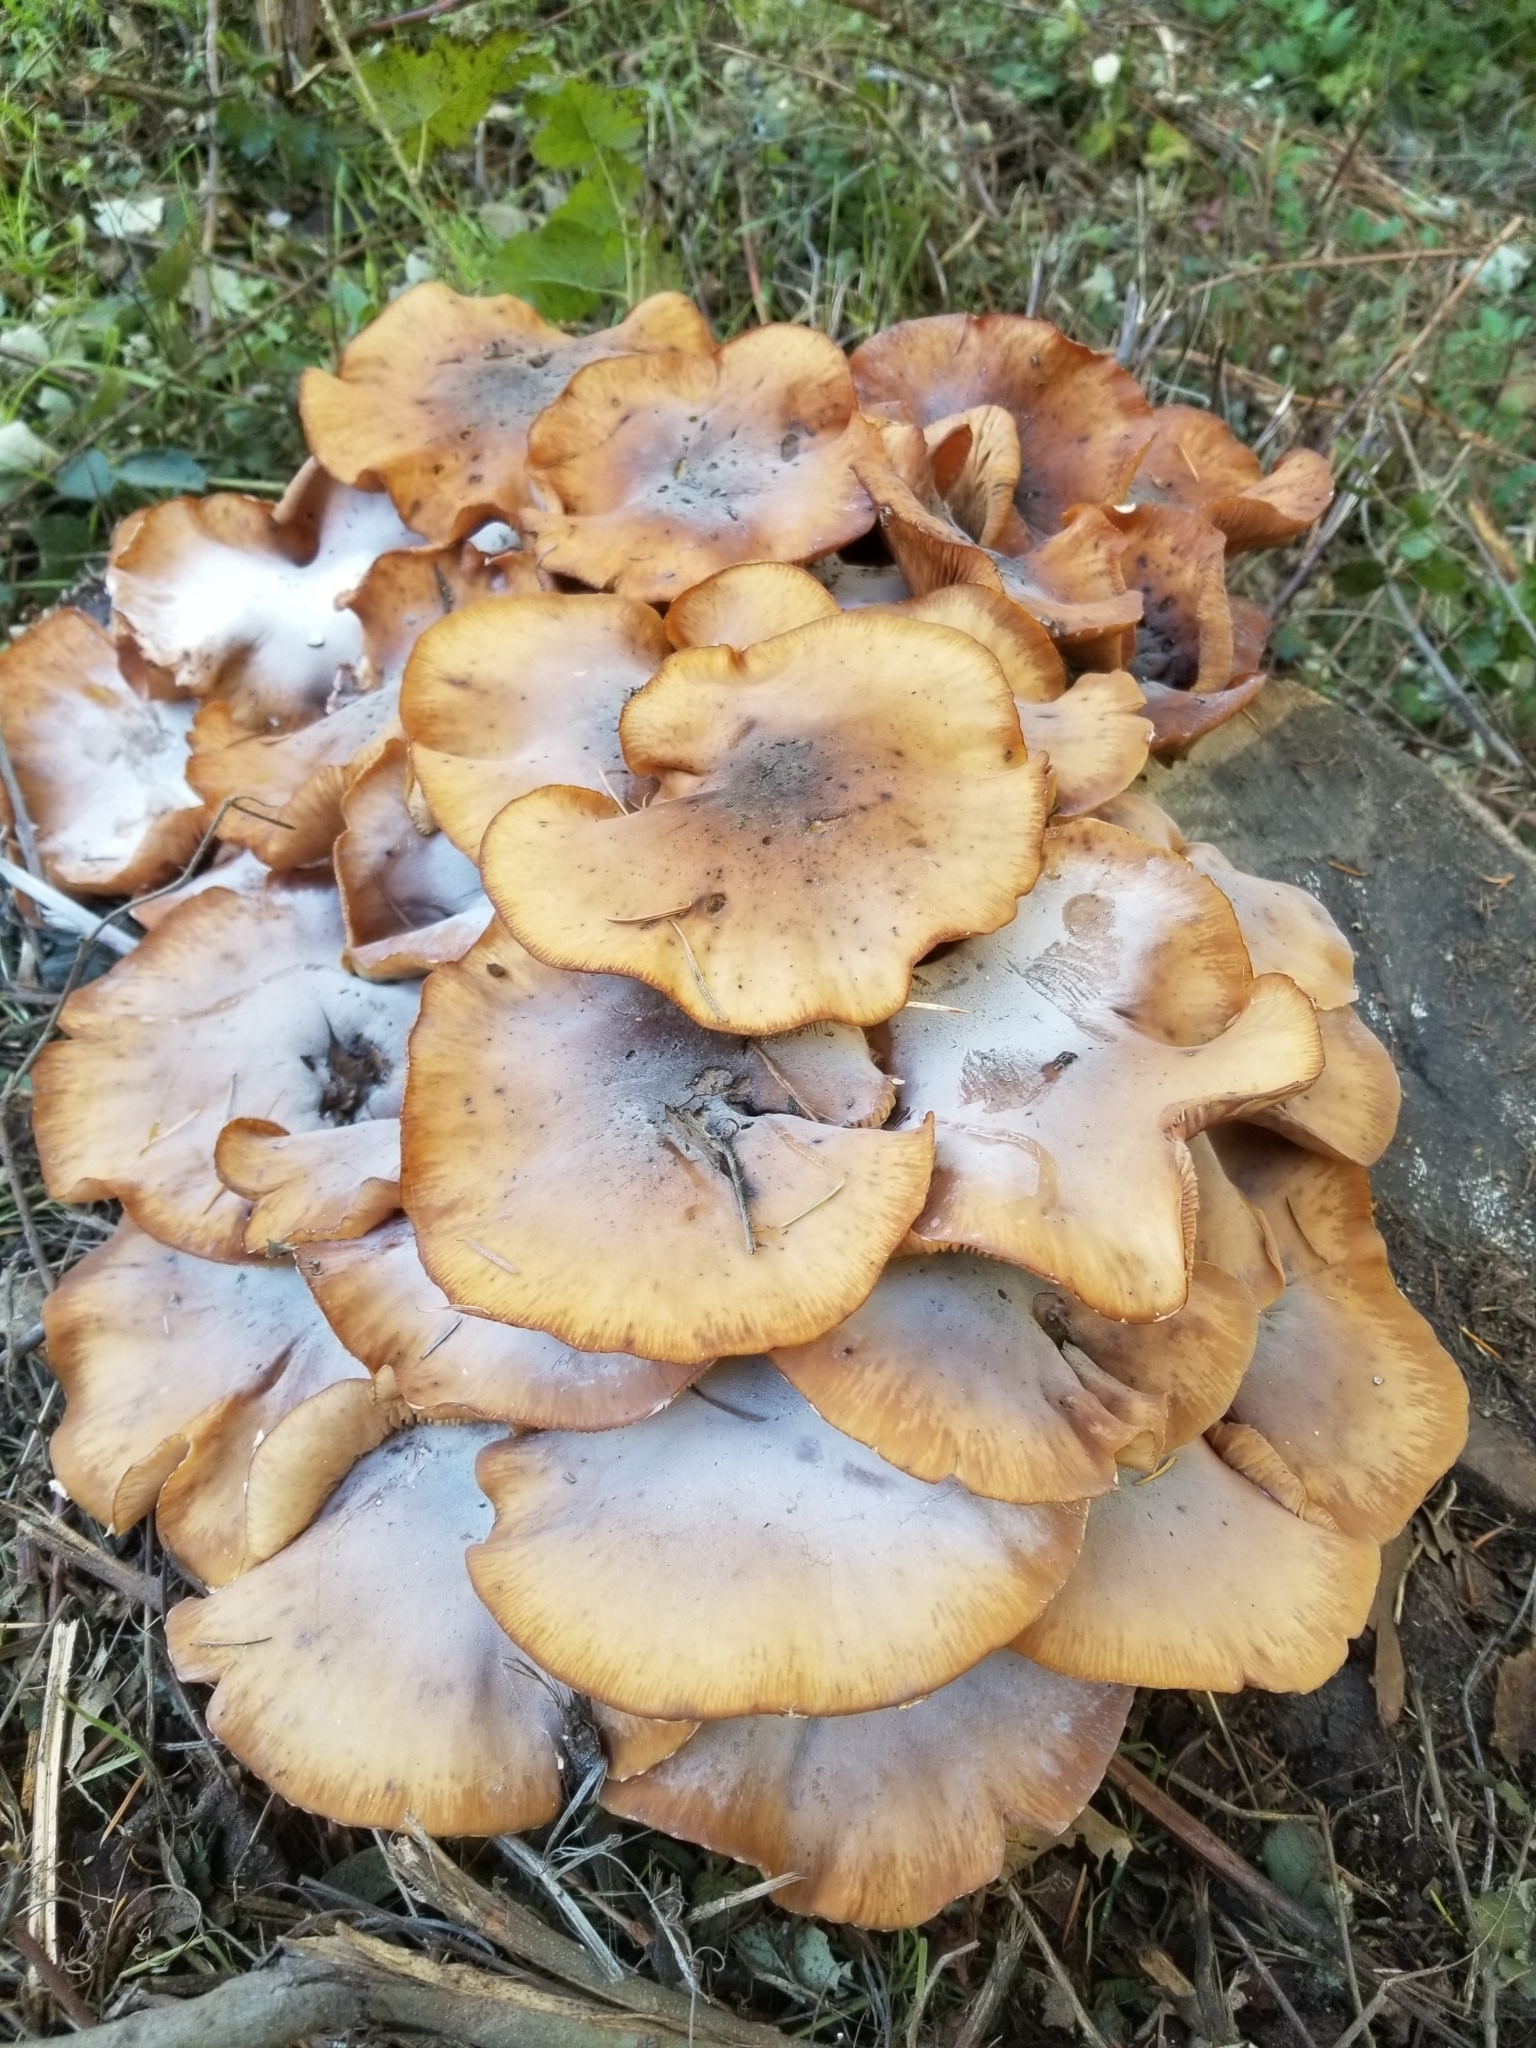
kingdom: Fungi
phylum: Basidiomycota
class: Agaricomycetes
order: Agaricales
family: Physalacriaceae
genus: Armillaria
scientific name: Armillaria mellea
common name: Honey fungus
